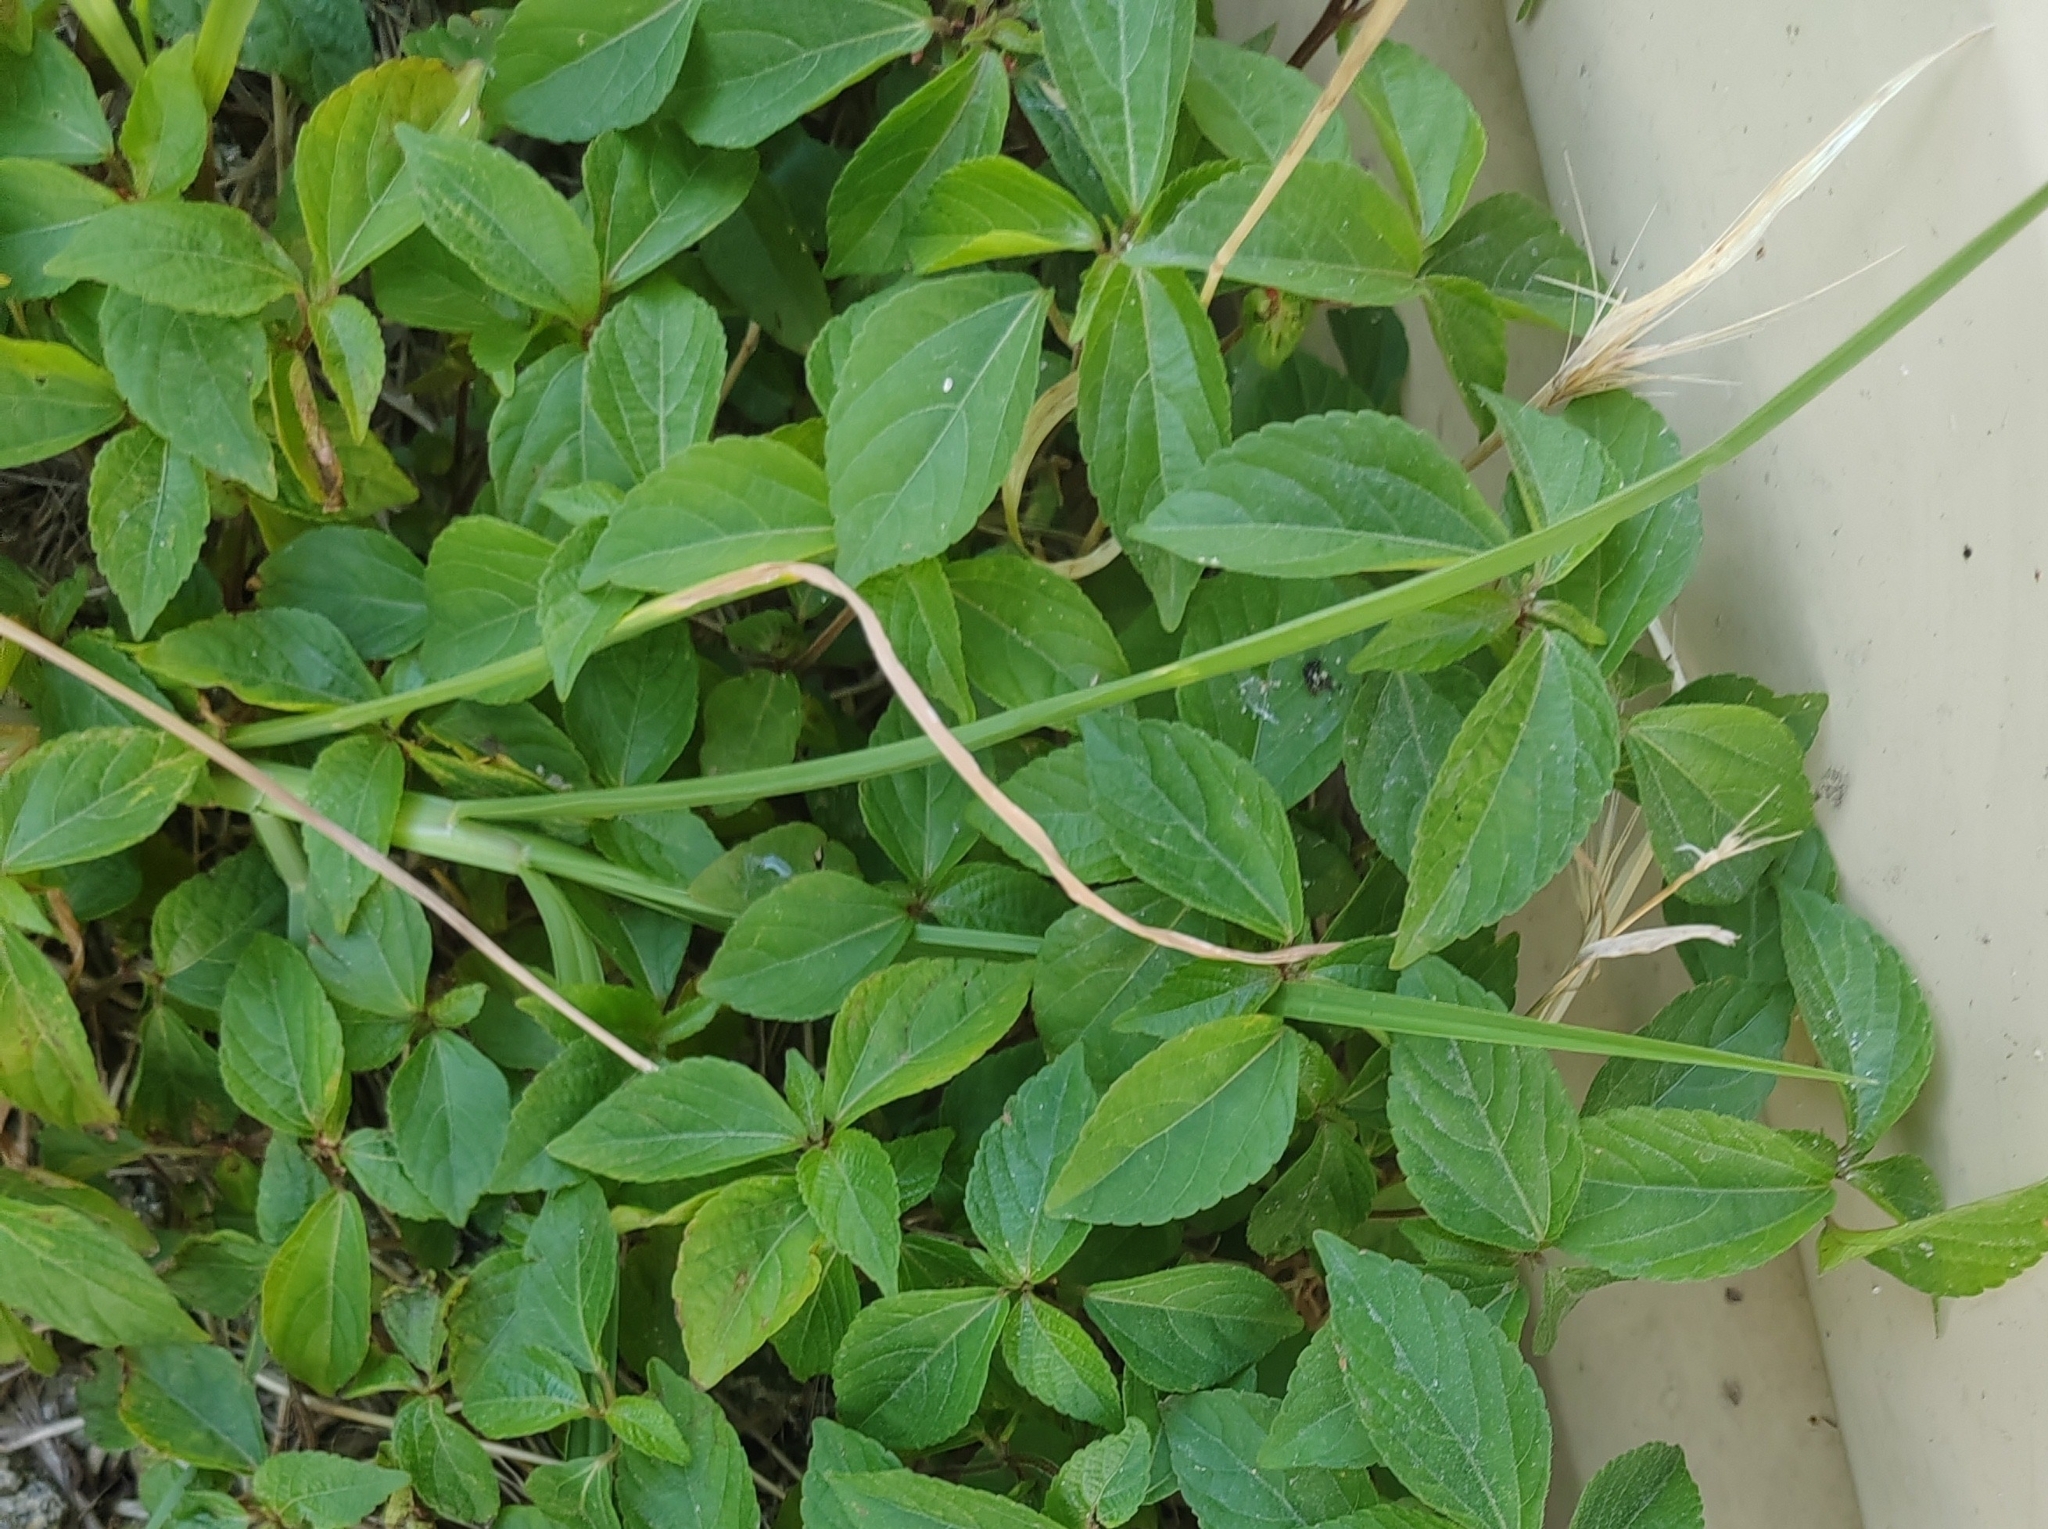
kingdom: Plantae
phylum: Tracheophyta
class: Magnoliopsida
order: Malpighiales
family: Euphorbiaceae
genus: Acalypha
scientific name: Acalypha australis
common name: Asian copperleaf
